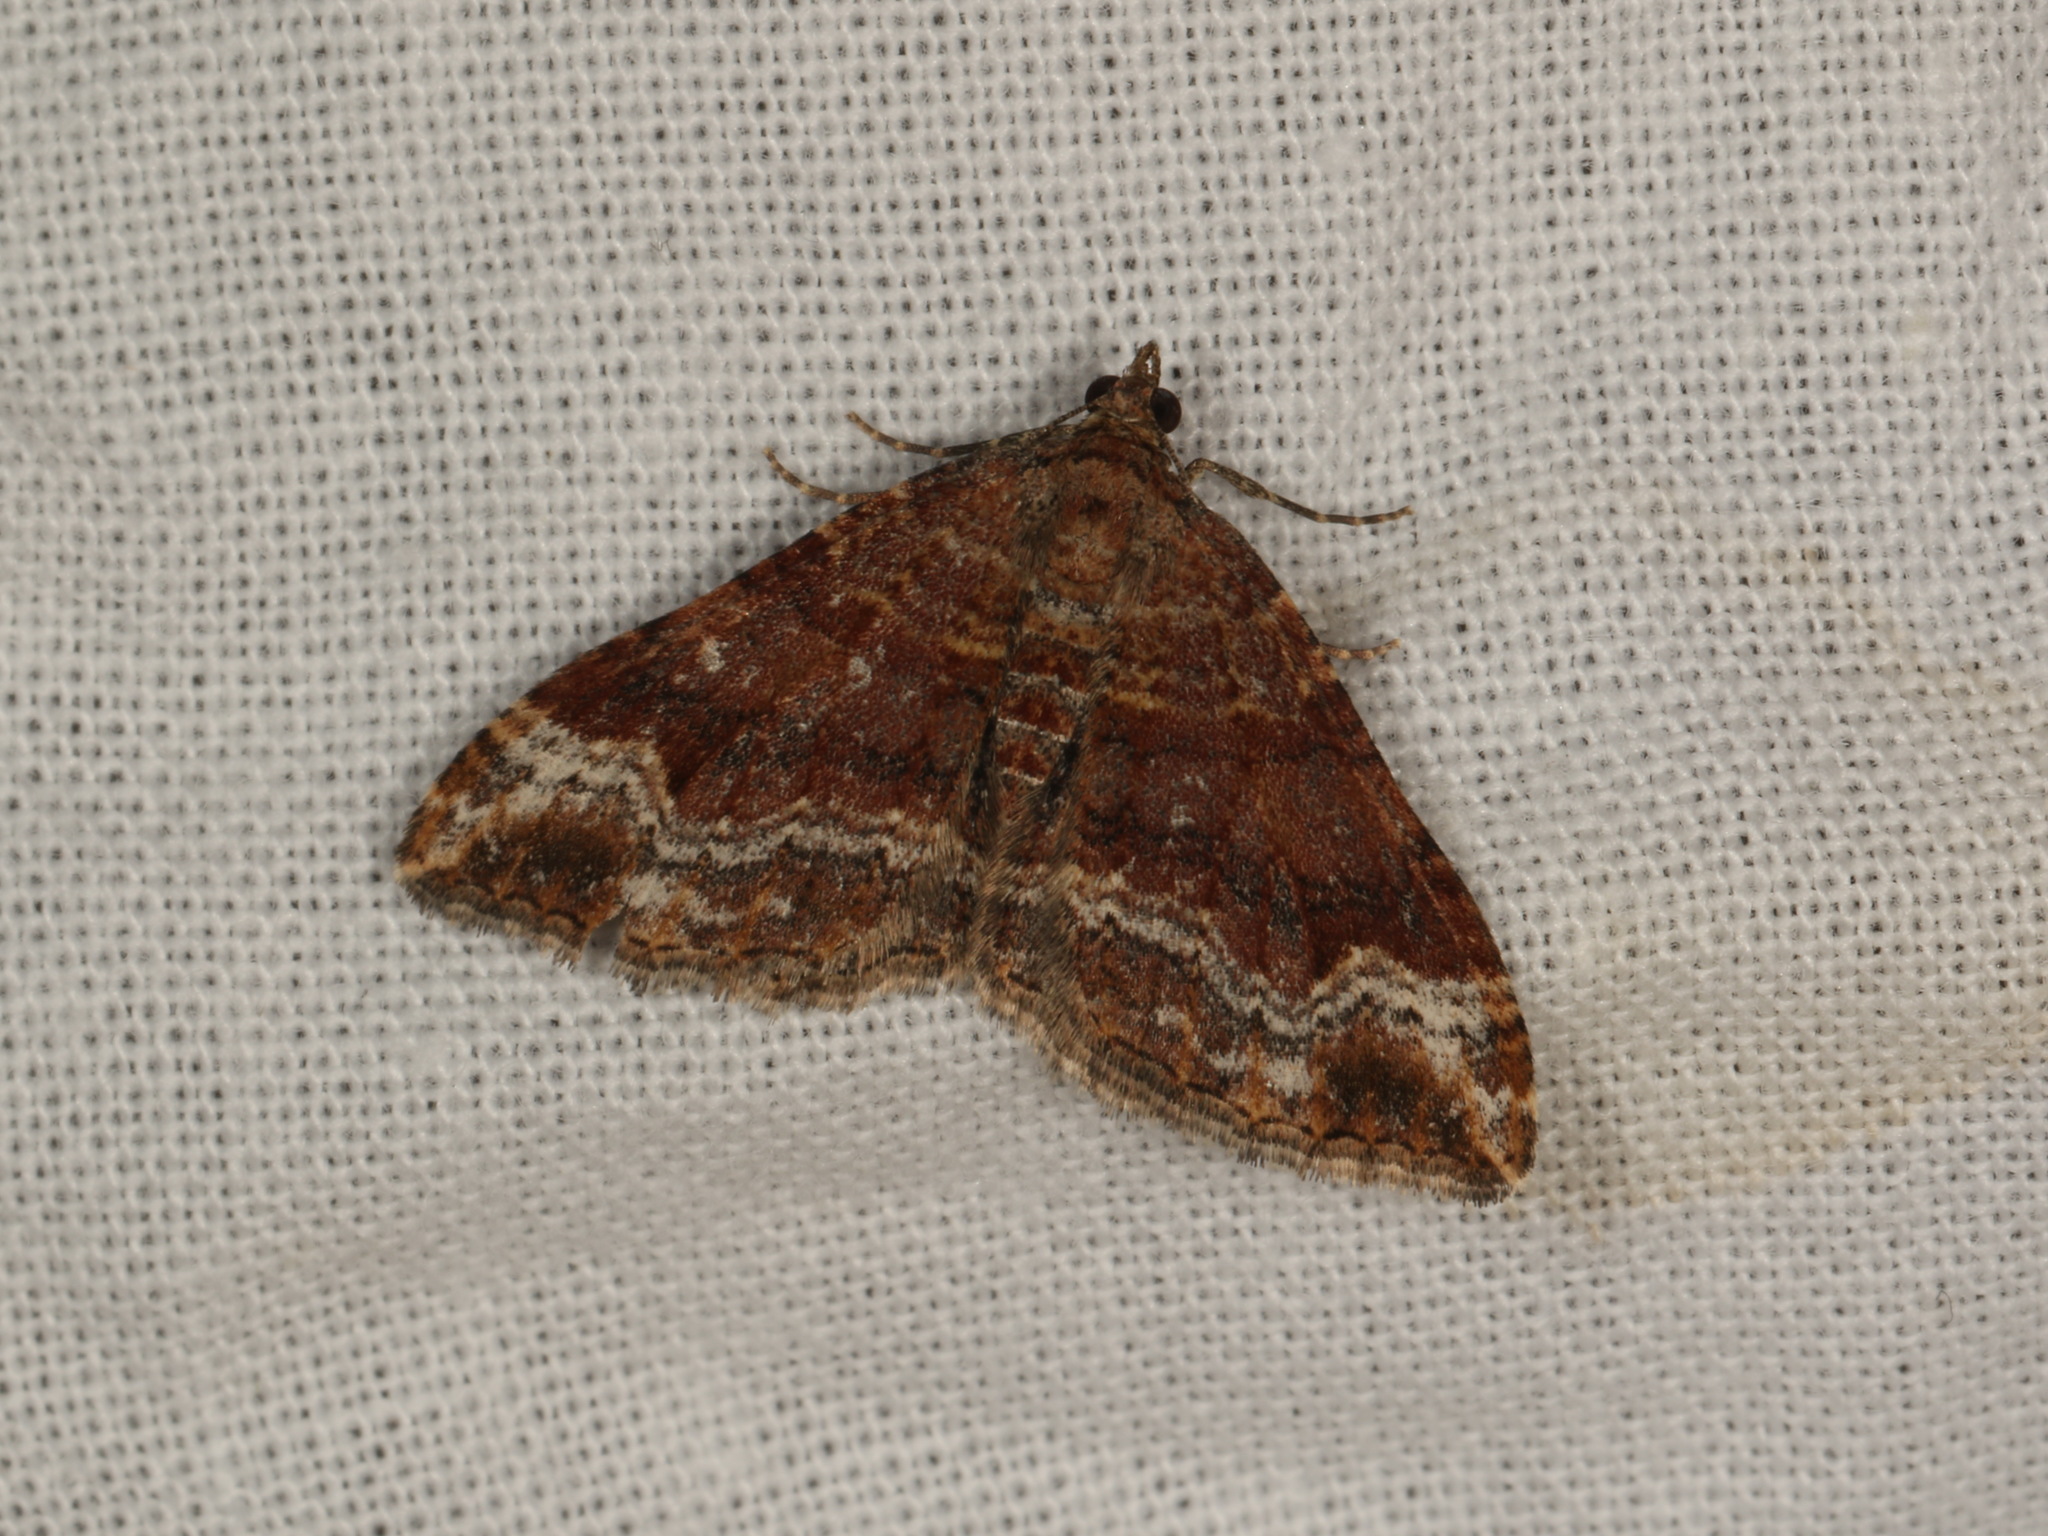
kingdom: Animalia
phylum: Arthropoda
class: Insecta
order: Lepidoptera
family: Geometridae
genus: Epyaxa
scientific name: Epyaxa subidaria
